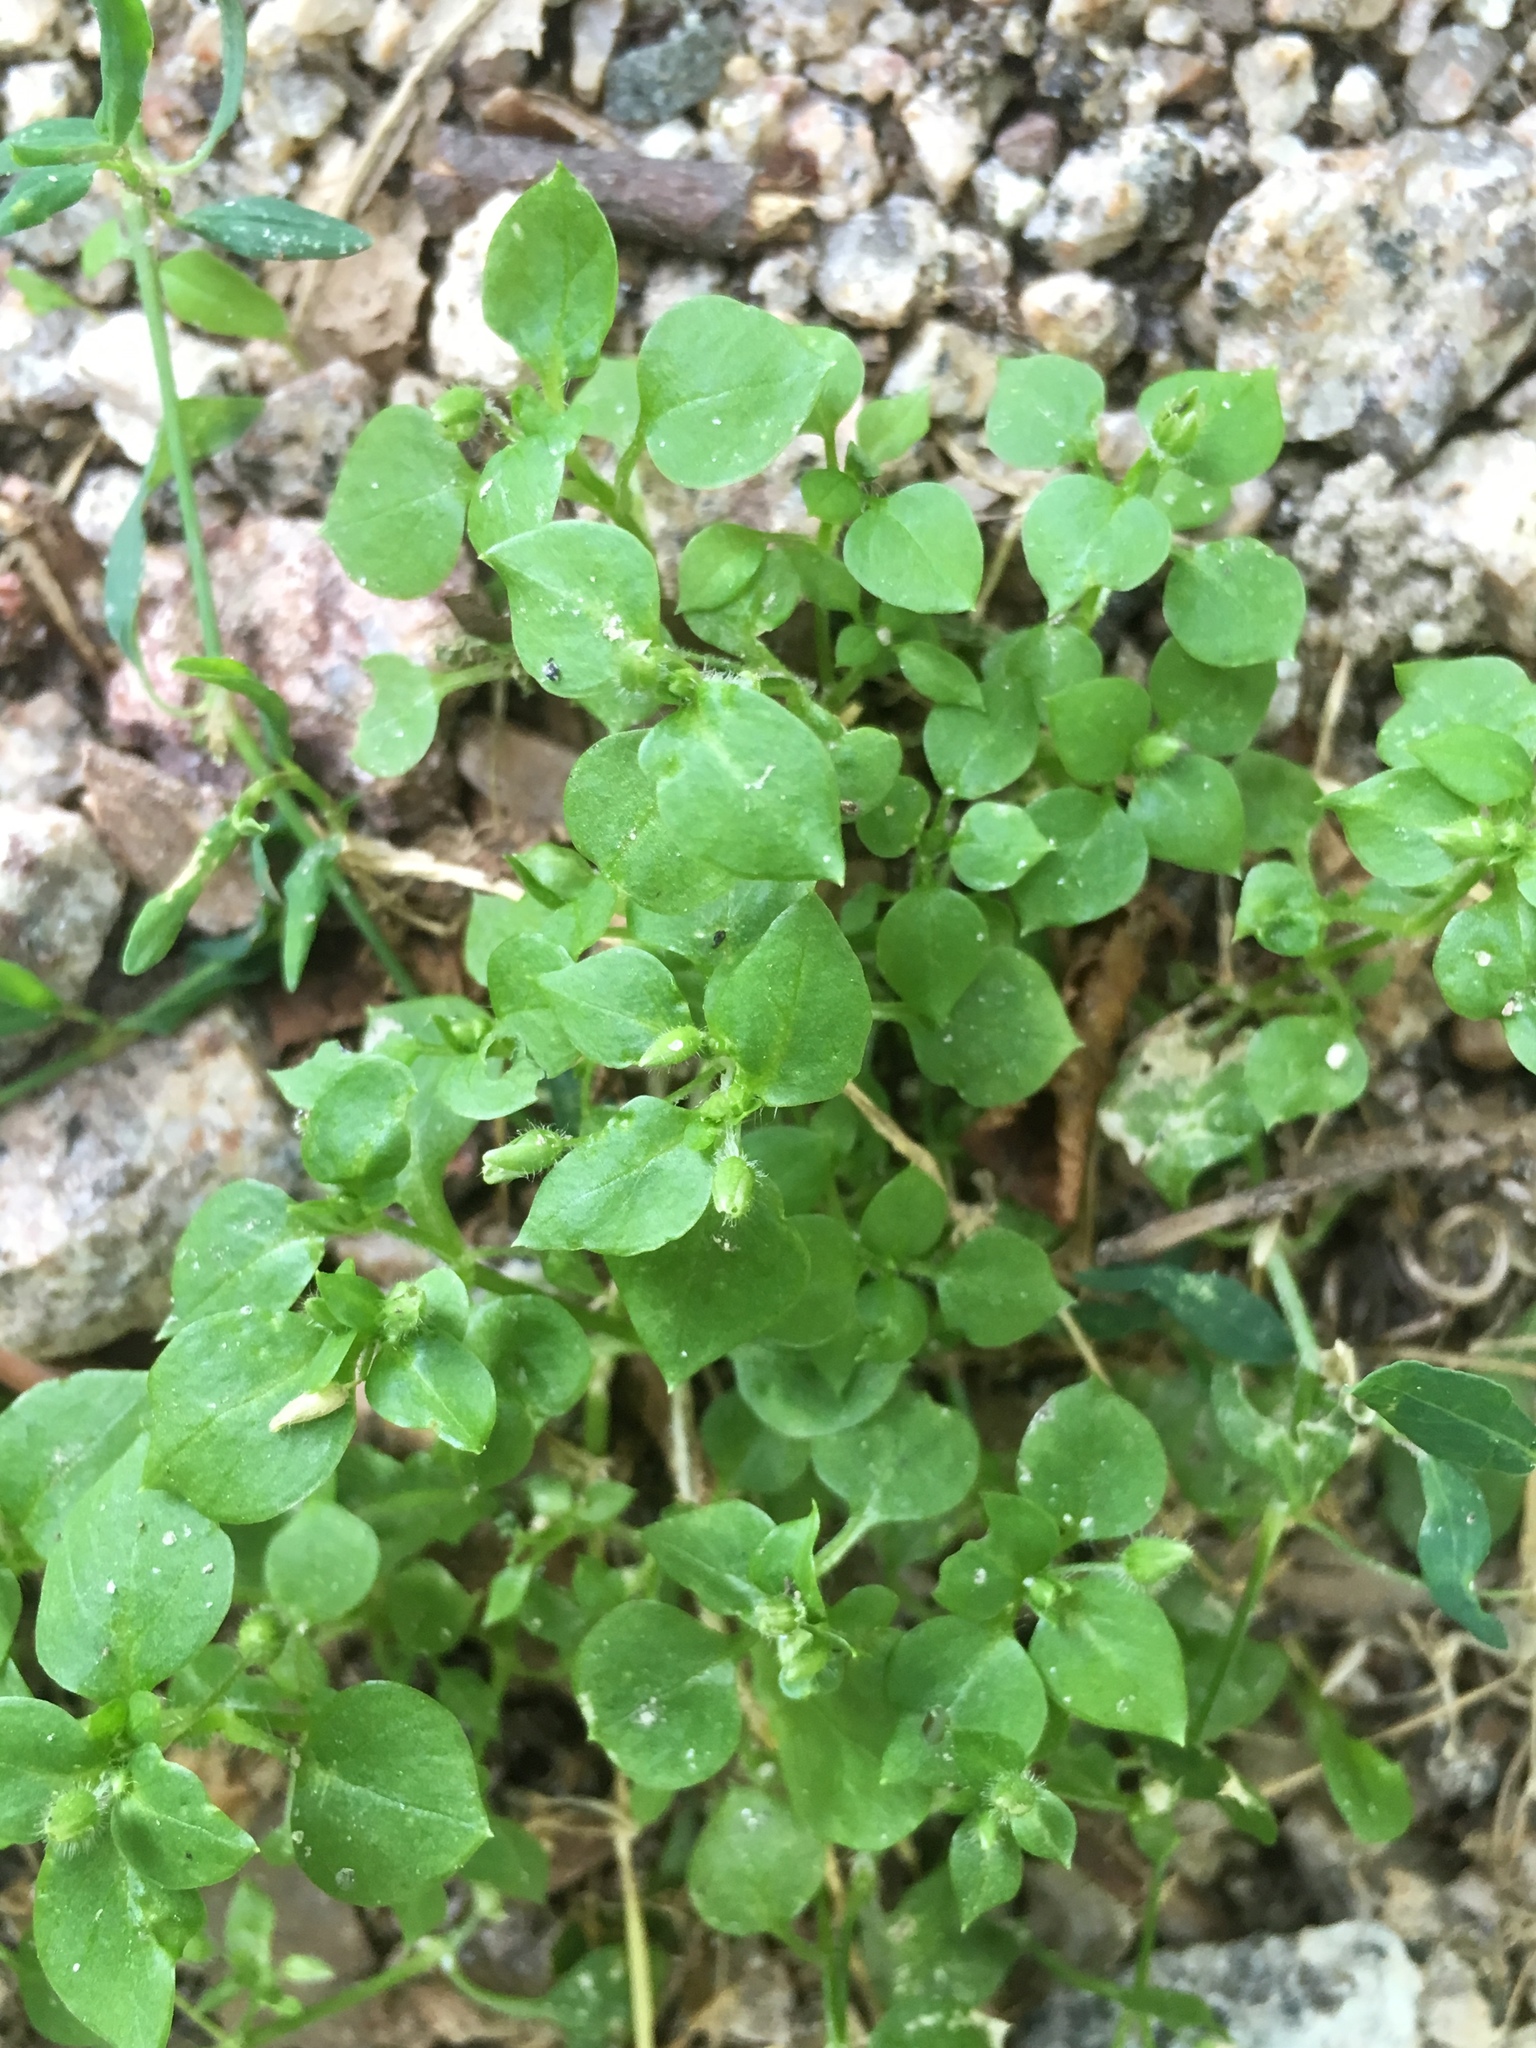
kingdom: Plantae
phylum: Tracheophyta
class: Magnoliopsida
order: Caryophyllales
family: Caryophyllaceae
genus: Stellaria
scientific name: Stellaria media
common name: Common chickweed
